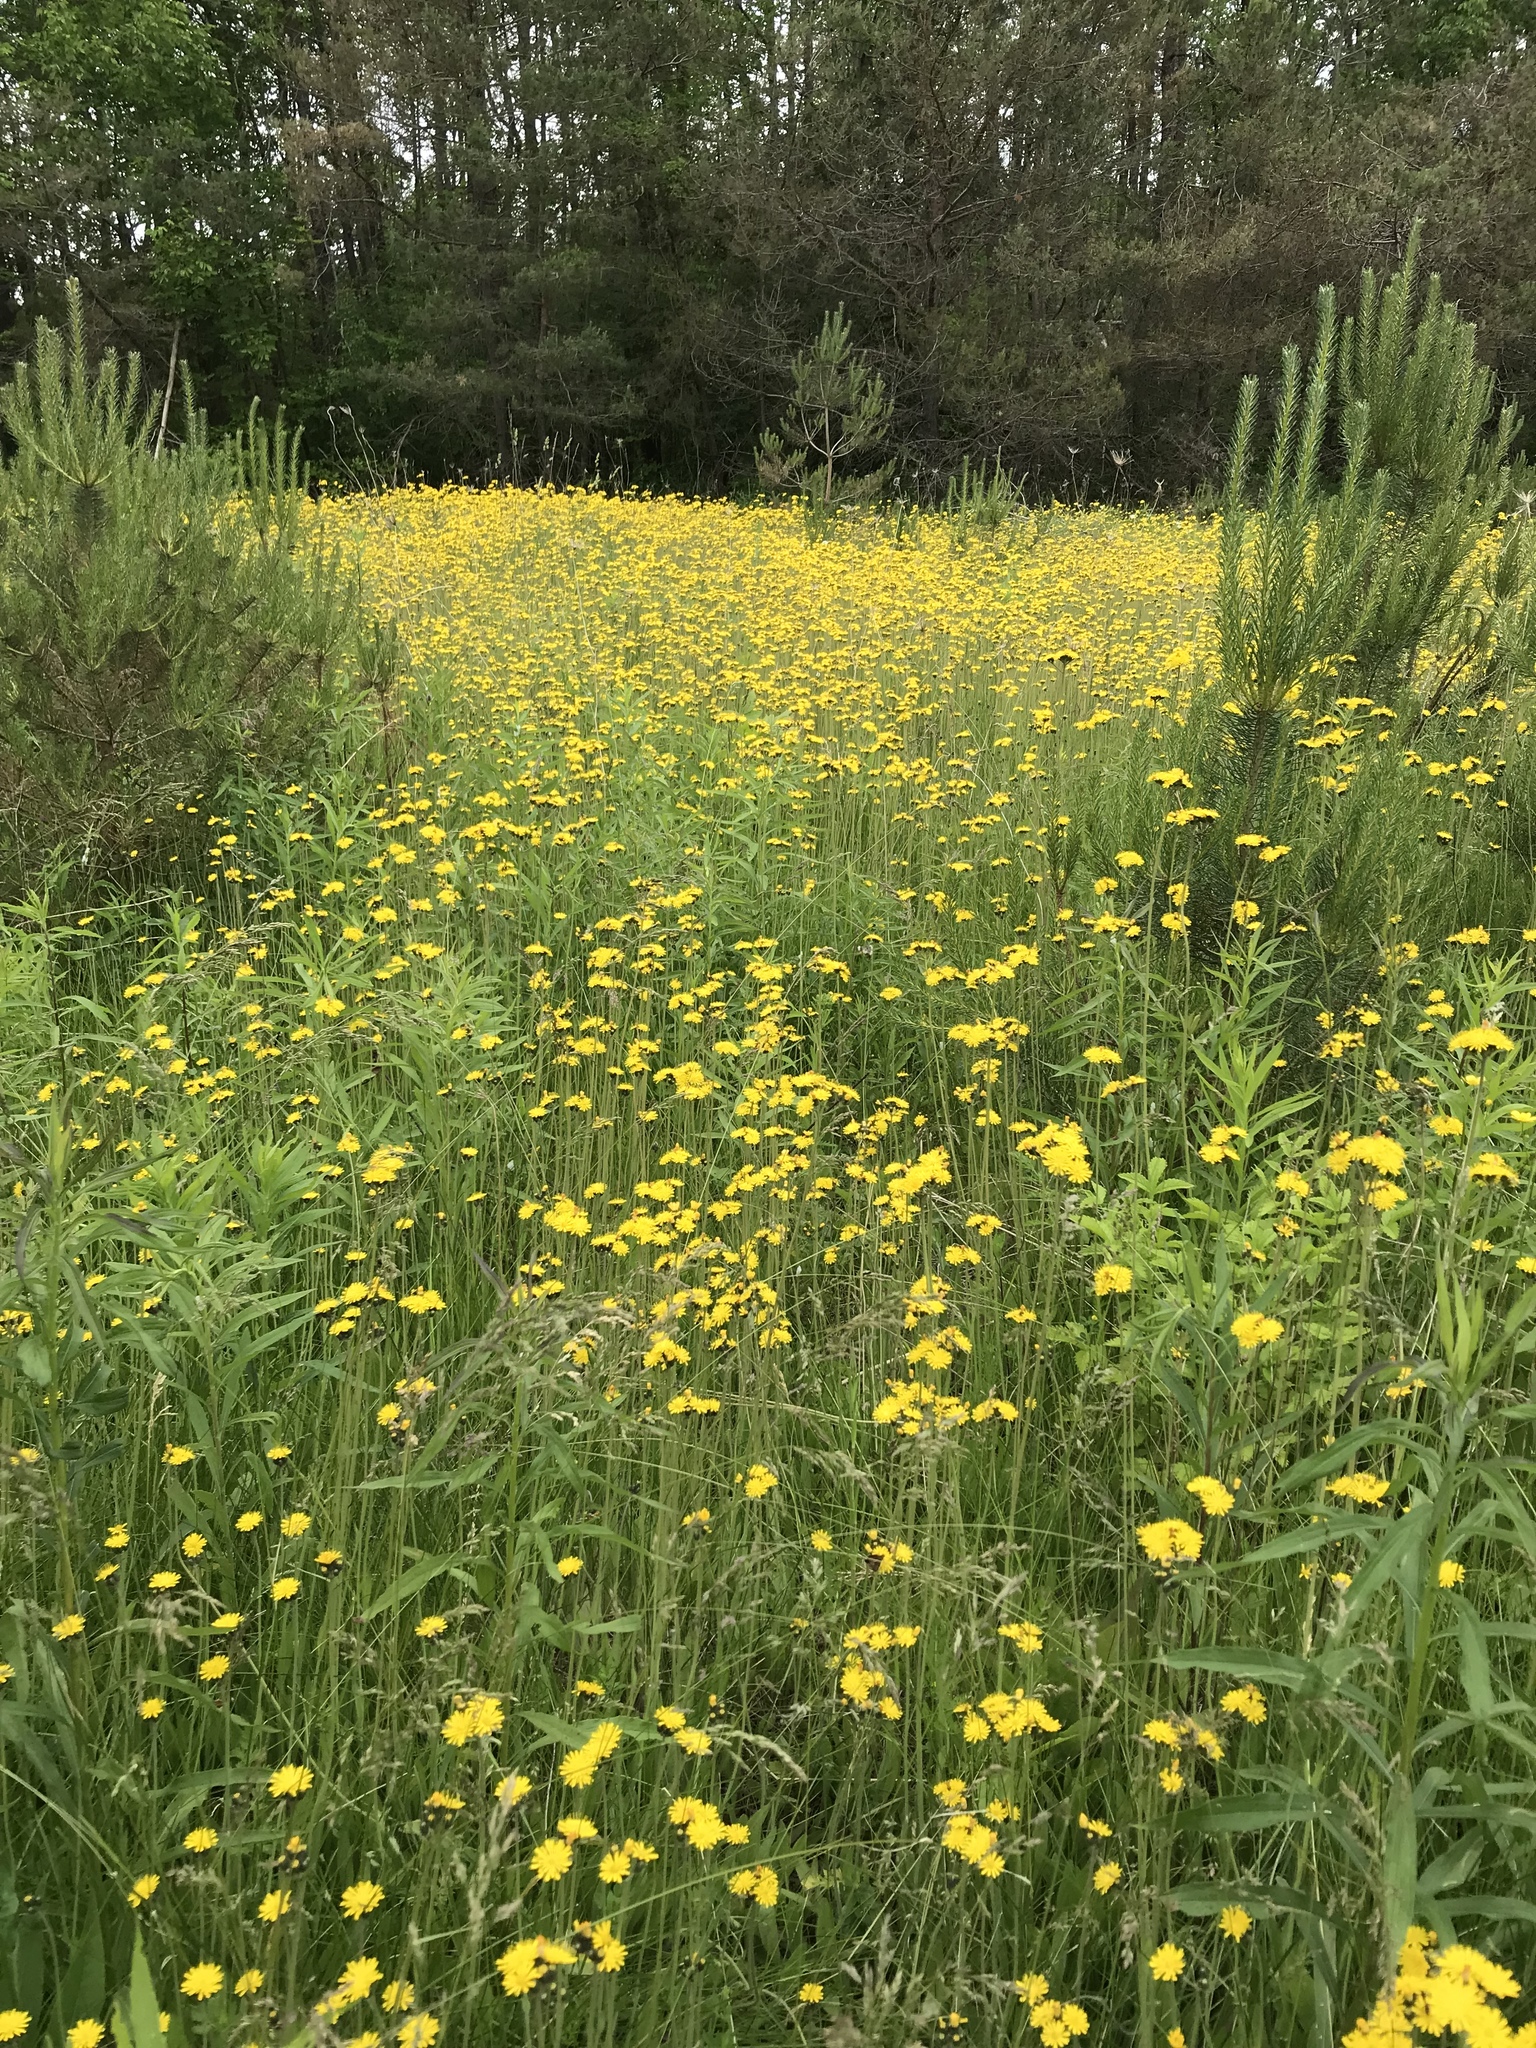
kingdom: Plantae
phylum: Tracheophyta
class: Magnoliopsida
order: Asterales
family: Asteraceae
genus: Pilosella
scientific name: Pilosella caespitosa
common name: Yellow fox-and-cubs
